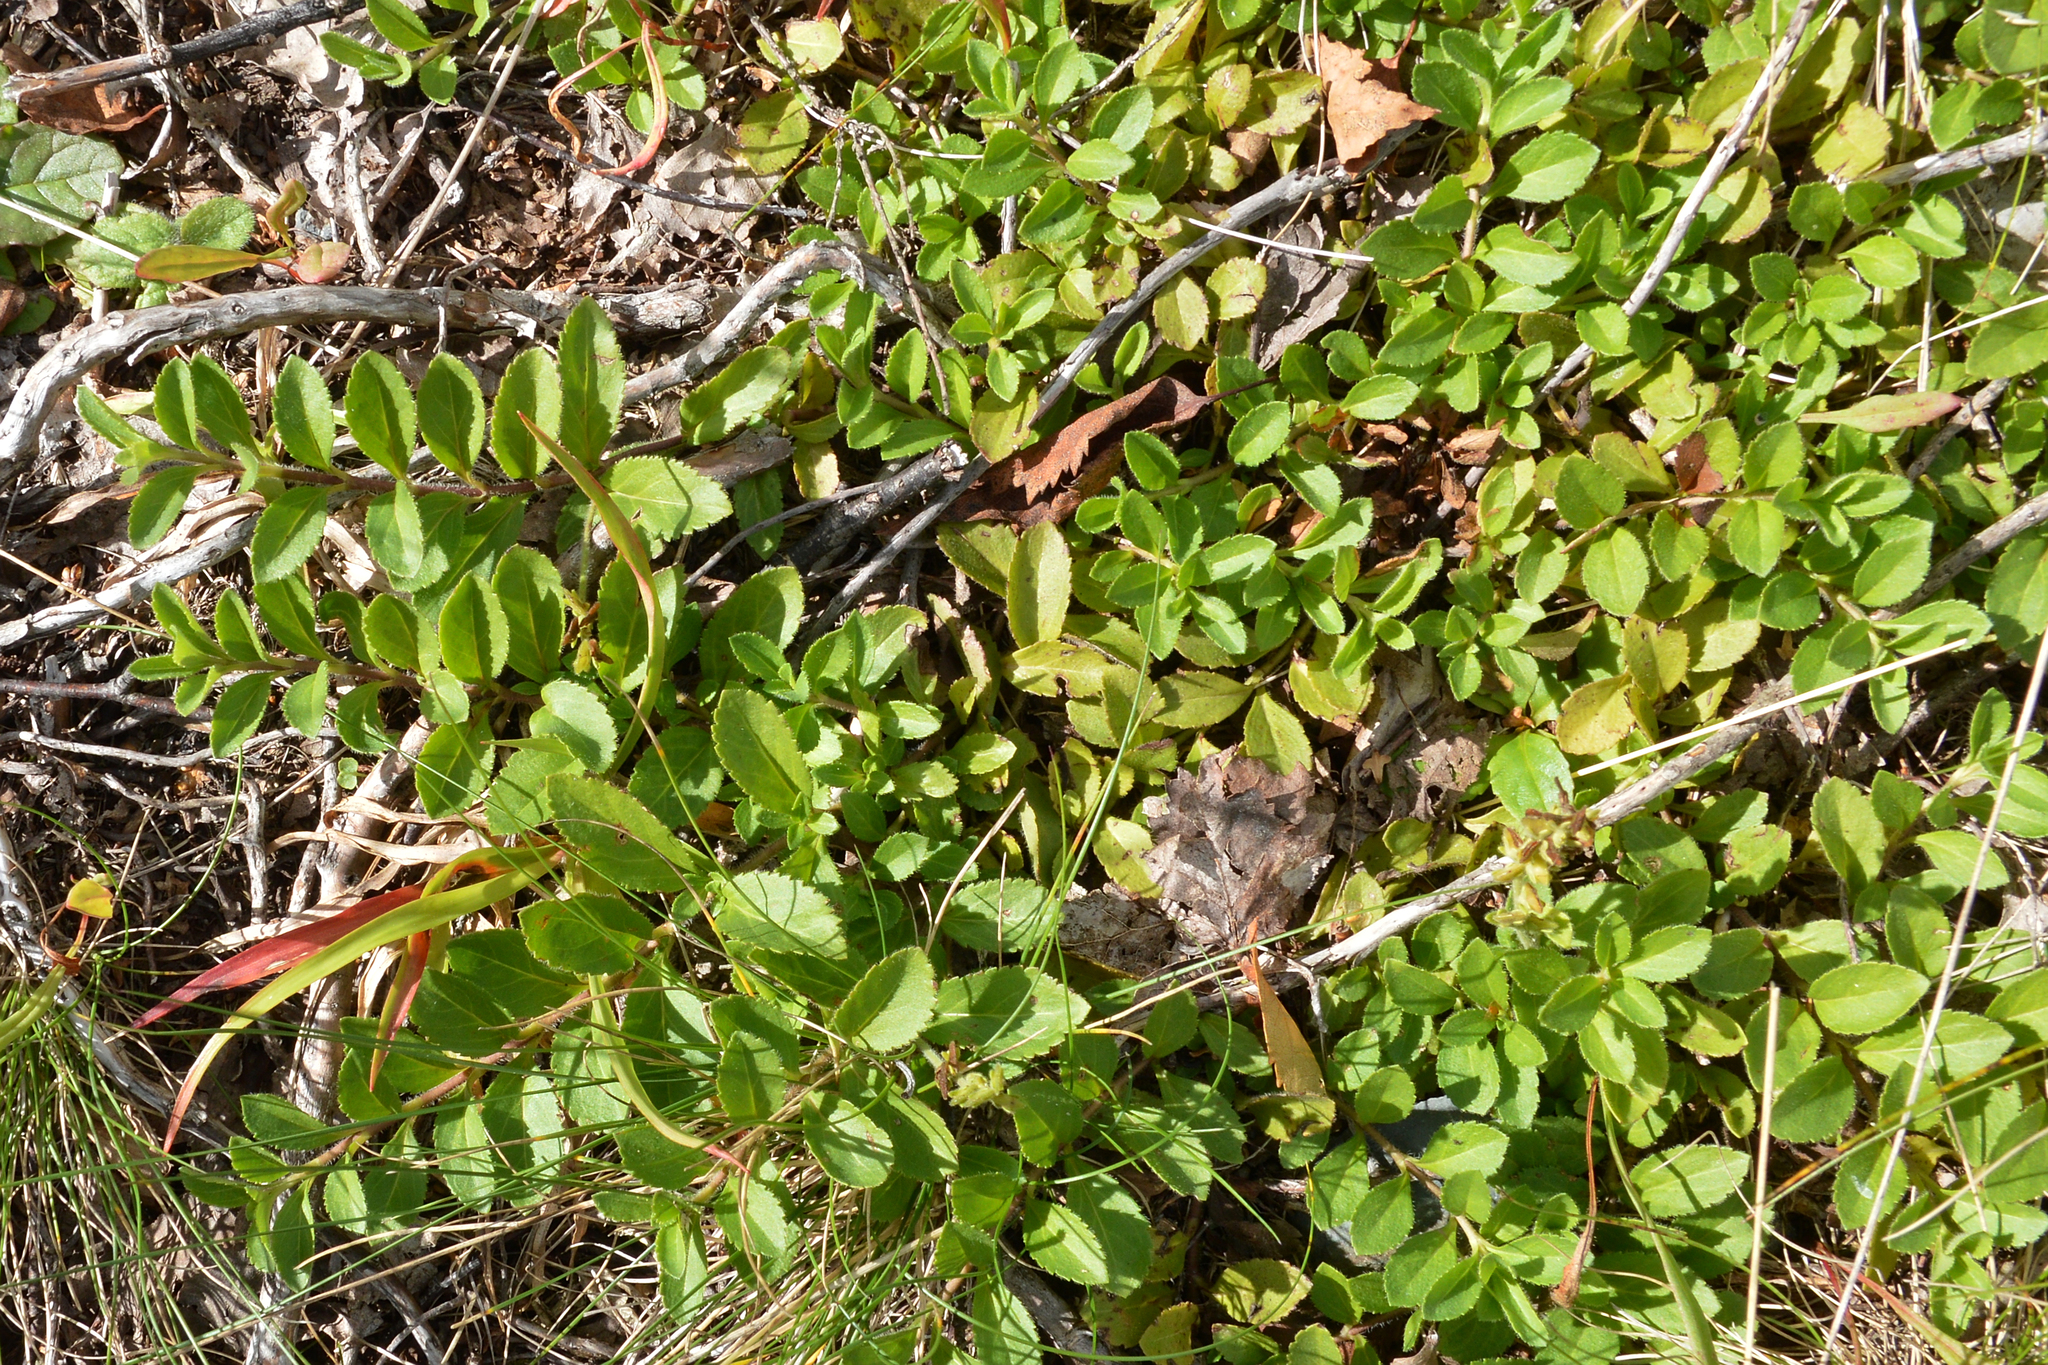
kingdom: Plantae
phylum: Tracheophyta
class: Magnoliopsida
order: Lamiales
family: Plantaginaceae
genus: Veronica
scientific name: Veronica officinalis
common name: Common speedwell
